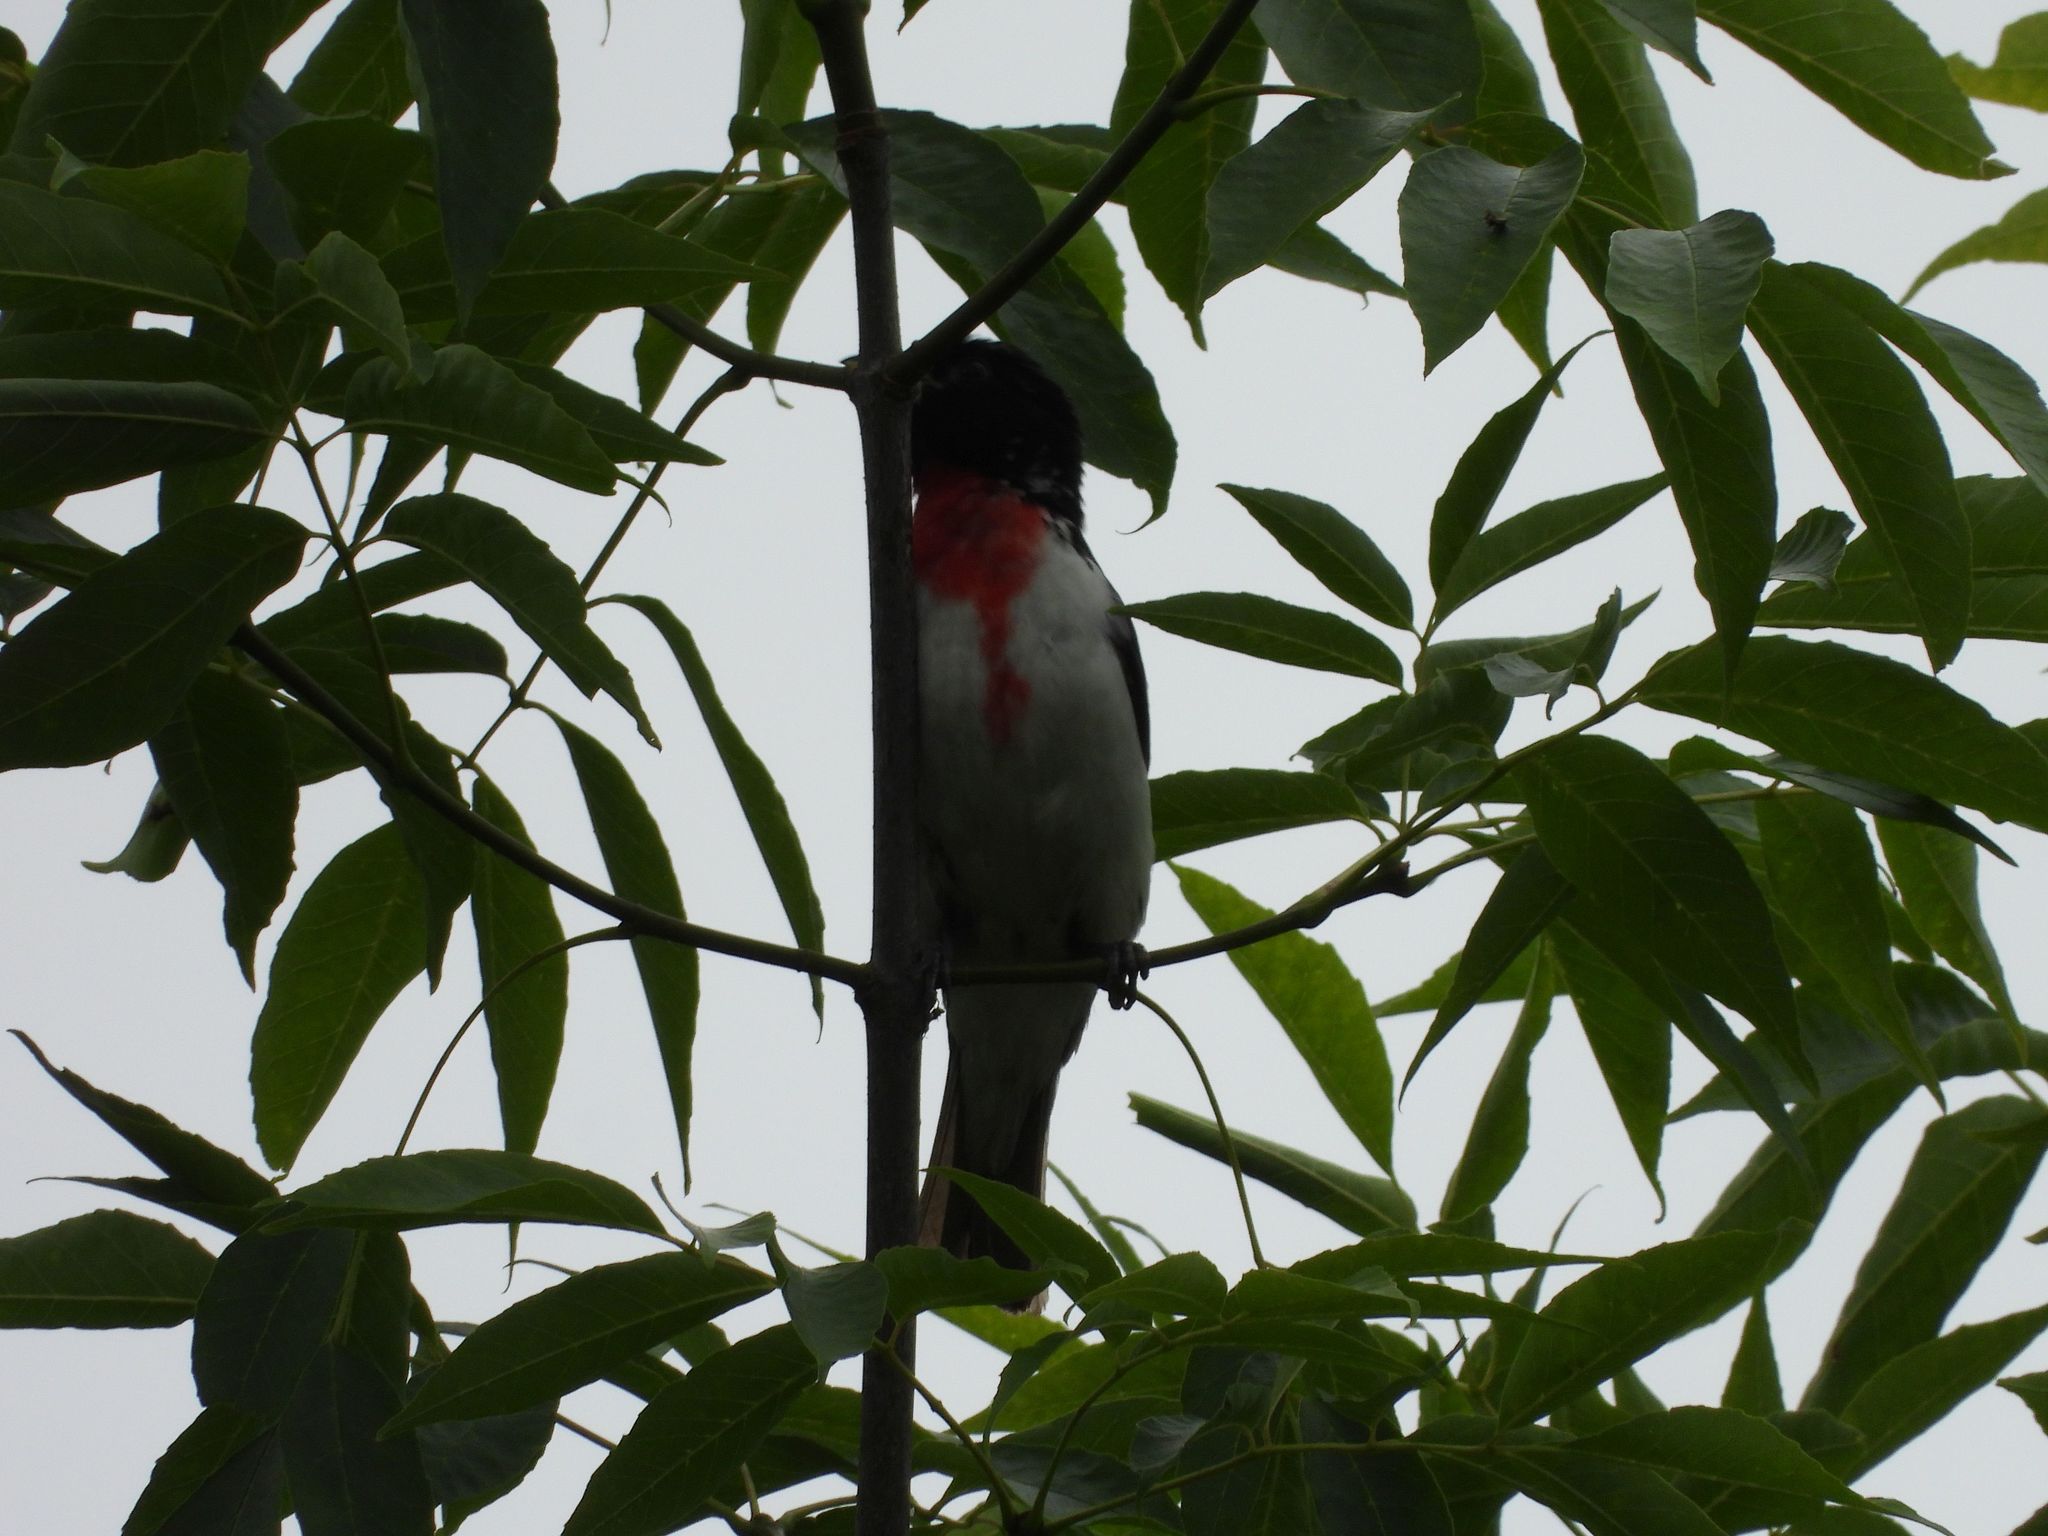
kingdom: Animalia
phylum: Chordata
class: Aves
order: Passeriformes
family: Cardinalidae
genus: Pheucticus
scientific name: Pheucticus ludovicianus
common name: Rose-breasted grosbeak
